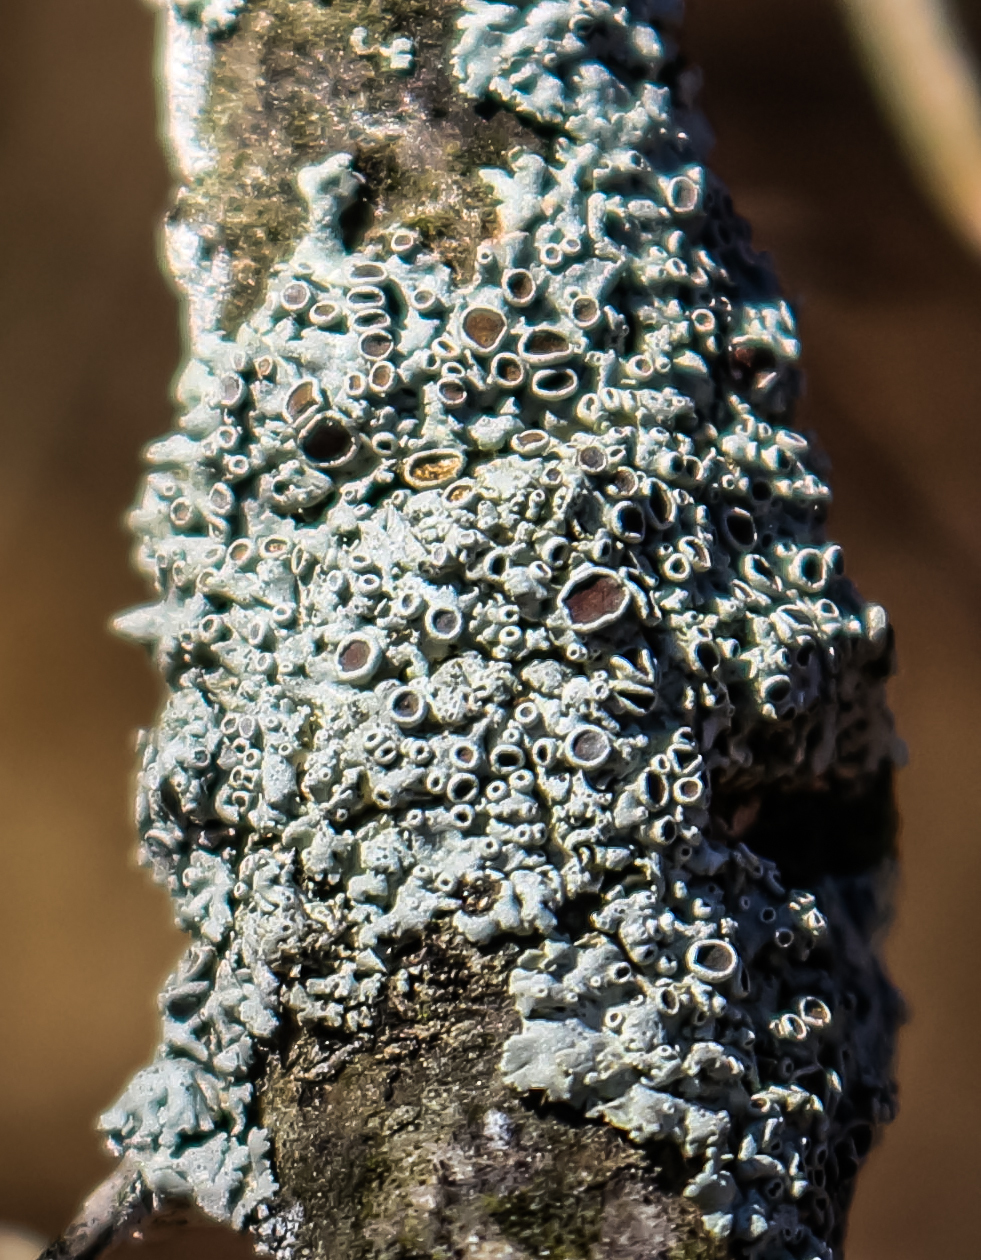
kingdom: Fungi
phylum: Ascomycota
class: Lecanoromycetes
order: Caliciales
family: Physciaceae
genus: Physcia
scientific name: Physcia stellaris
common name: Star rosette lichen
